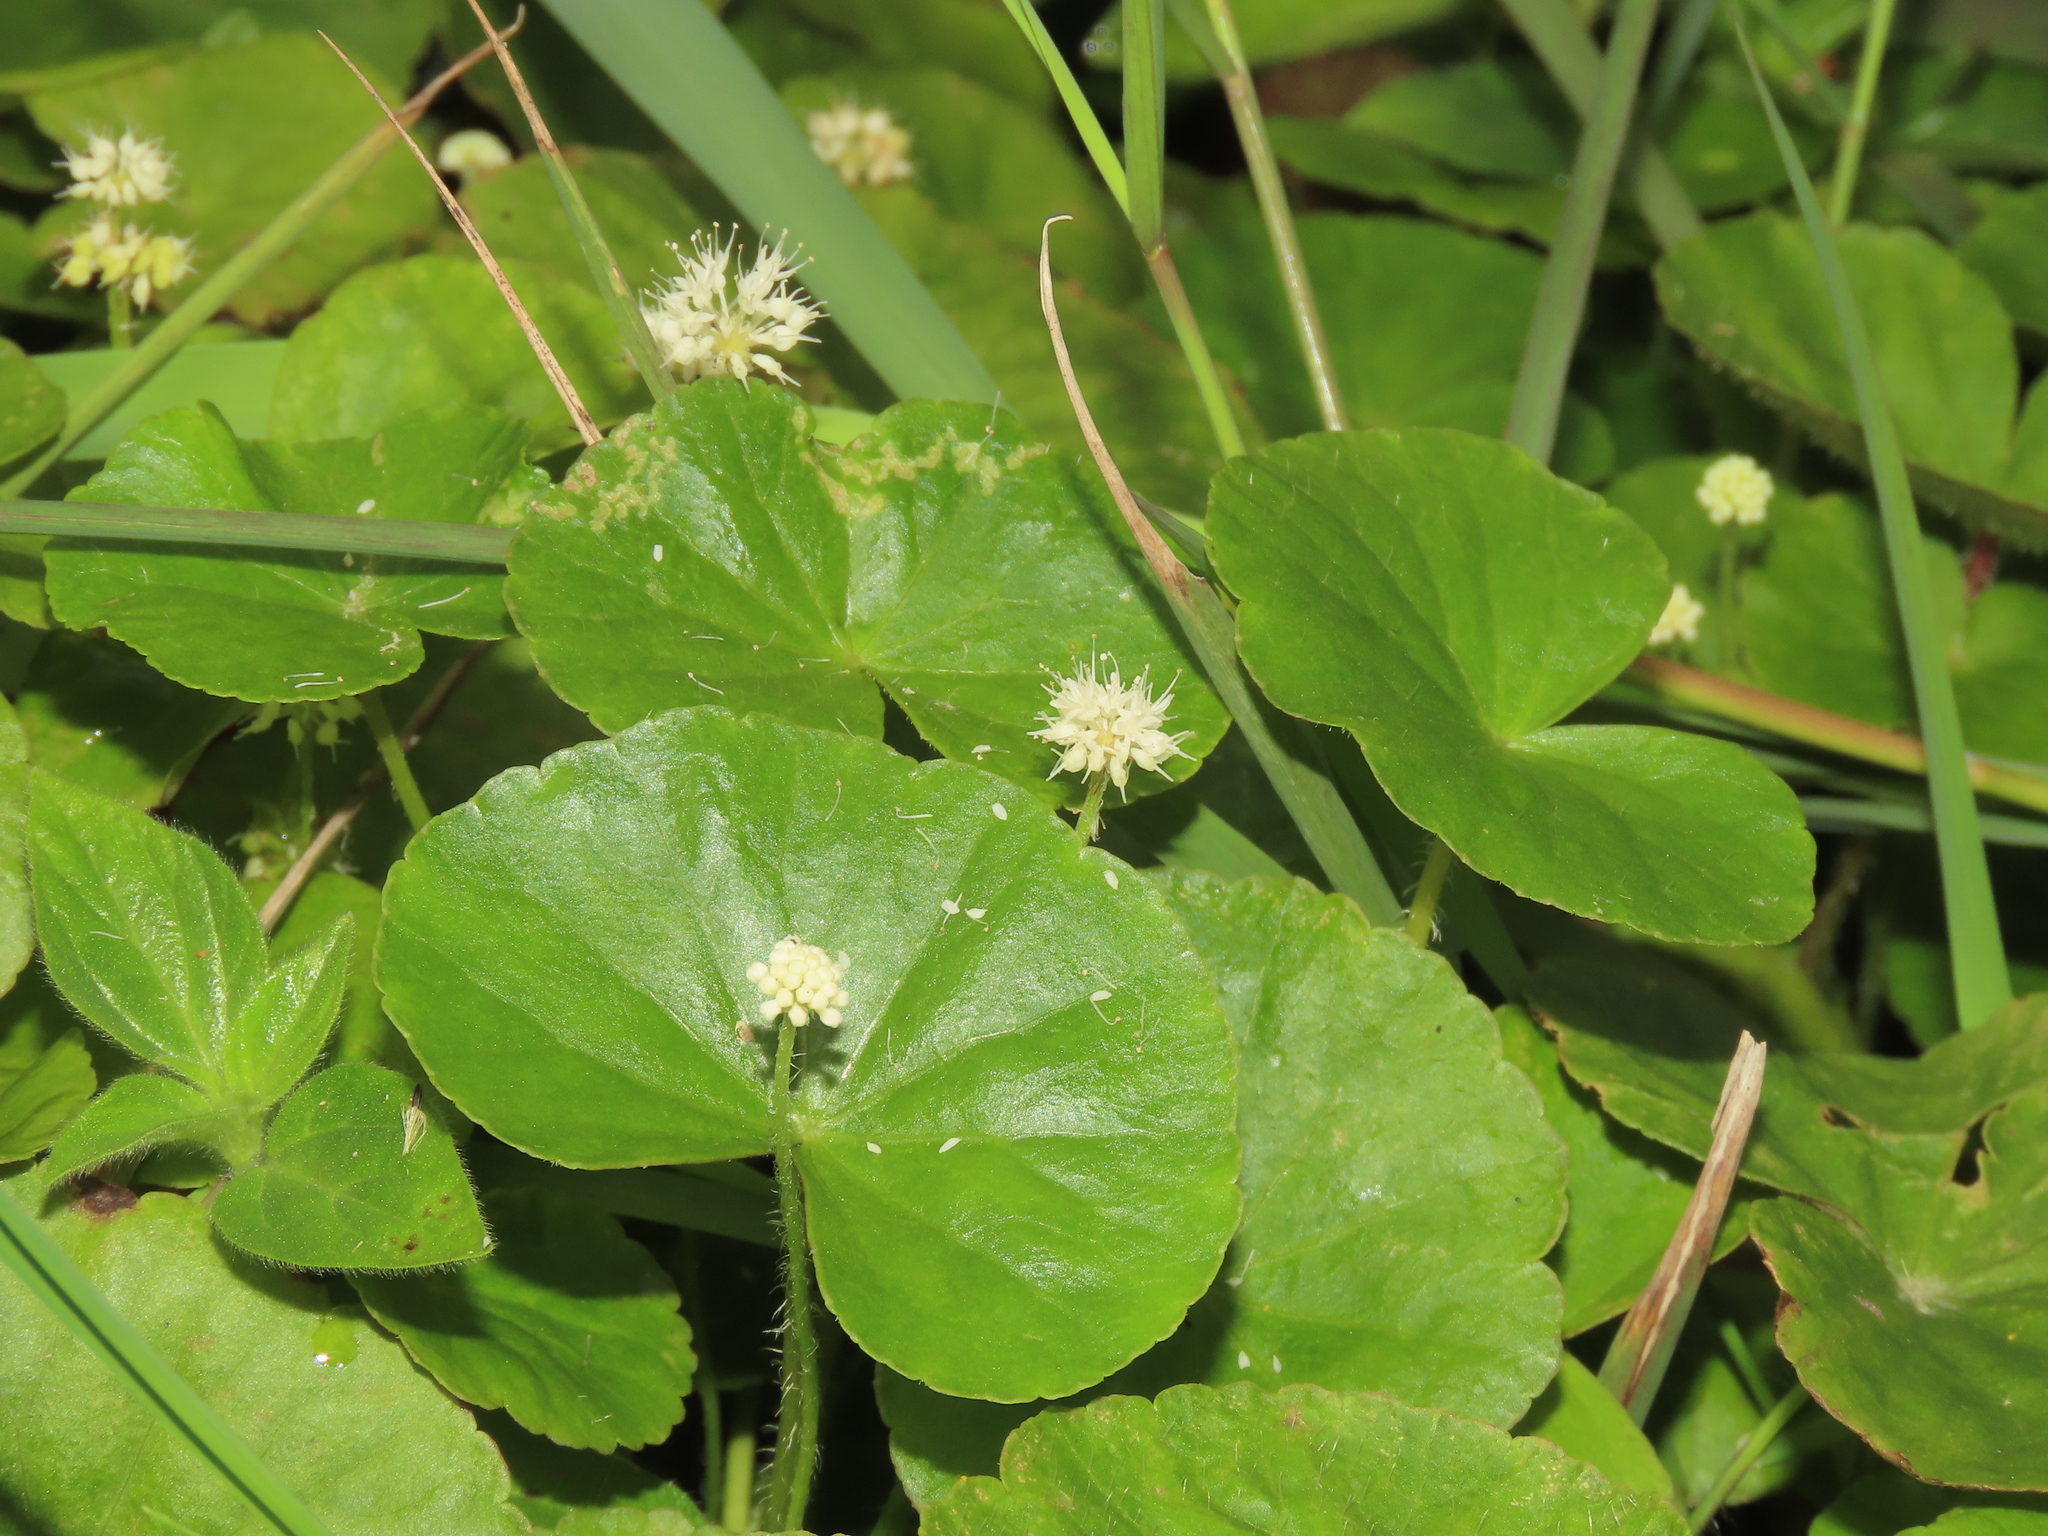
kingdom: Plantae
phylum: Tracheophyta
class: Magnoliopsida
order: Apiales
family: Araliaceae
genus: Hydrocotyle
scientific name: Hydrocotyle leucocephala
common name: Brazilian pennywort
